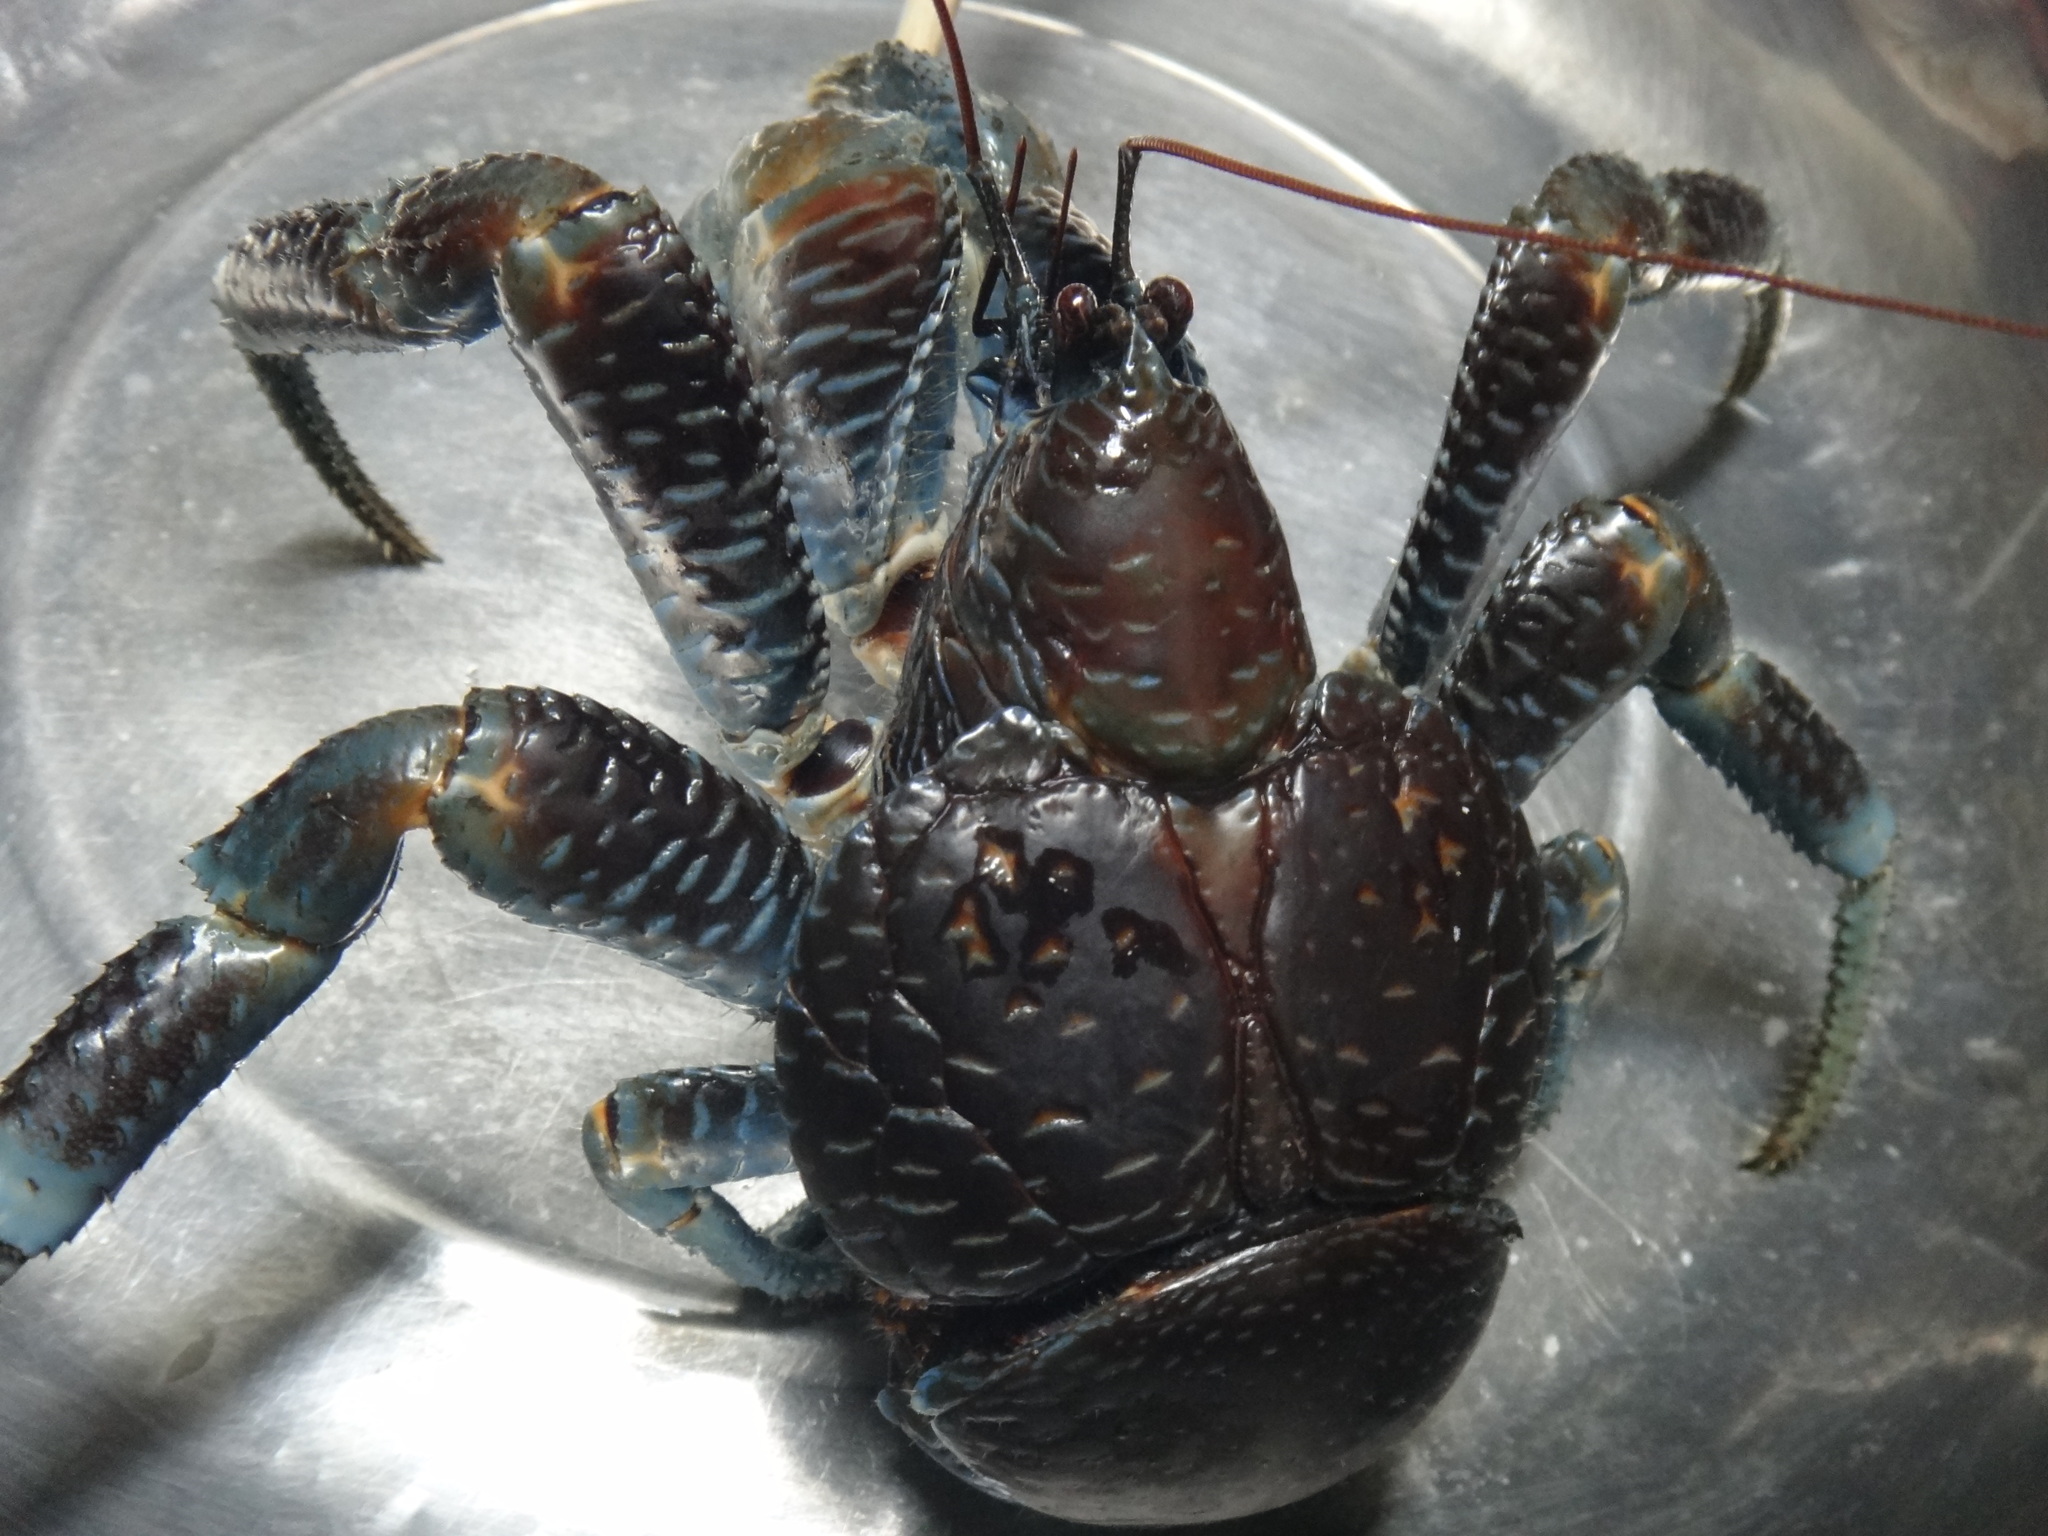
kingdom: Animalia
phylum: Arthropoda
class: Malacostraca
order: Decapoda
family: Coenobitidae
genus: Birgus
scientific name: Birgus latro
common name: Coconut crab
